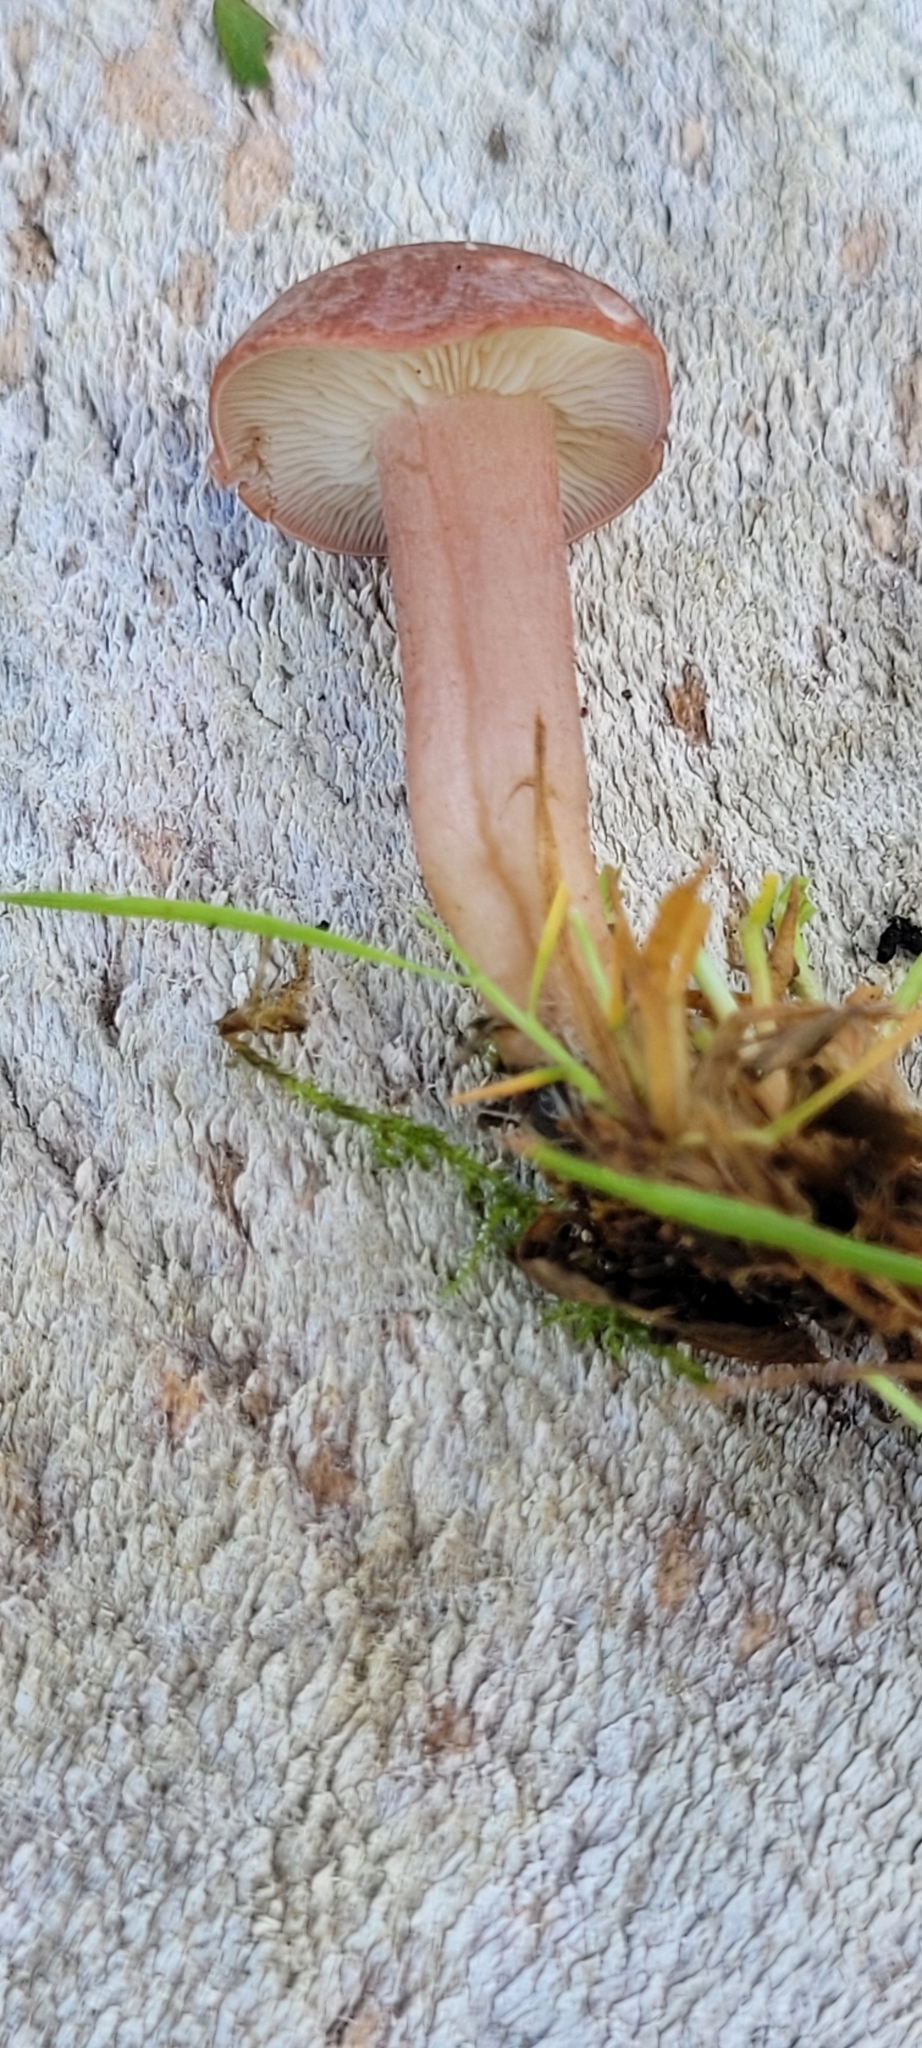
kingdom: Fungi
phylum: Basidiomycota
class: Agaricomycetes
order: Agaricales
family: Lyophyllaceae
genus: Calocybe
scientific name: Calocybe carnea
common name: Pink domecap
